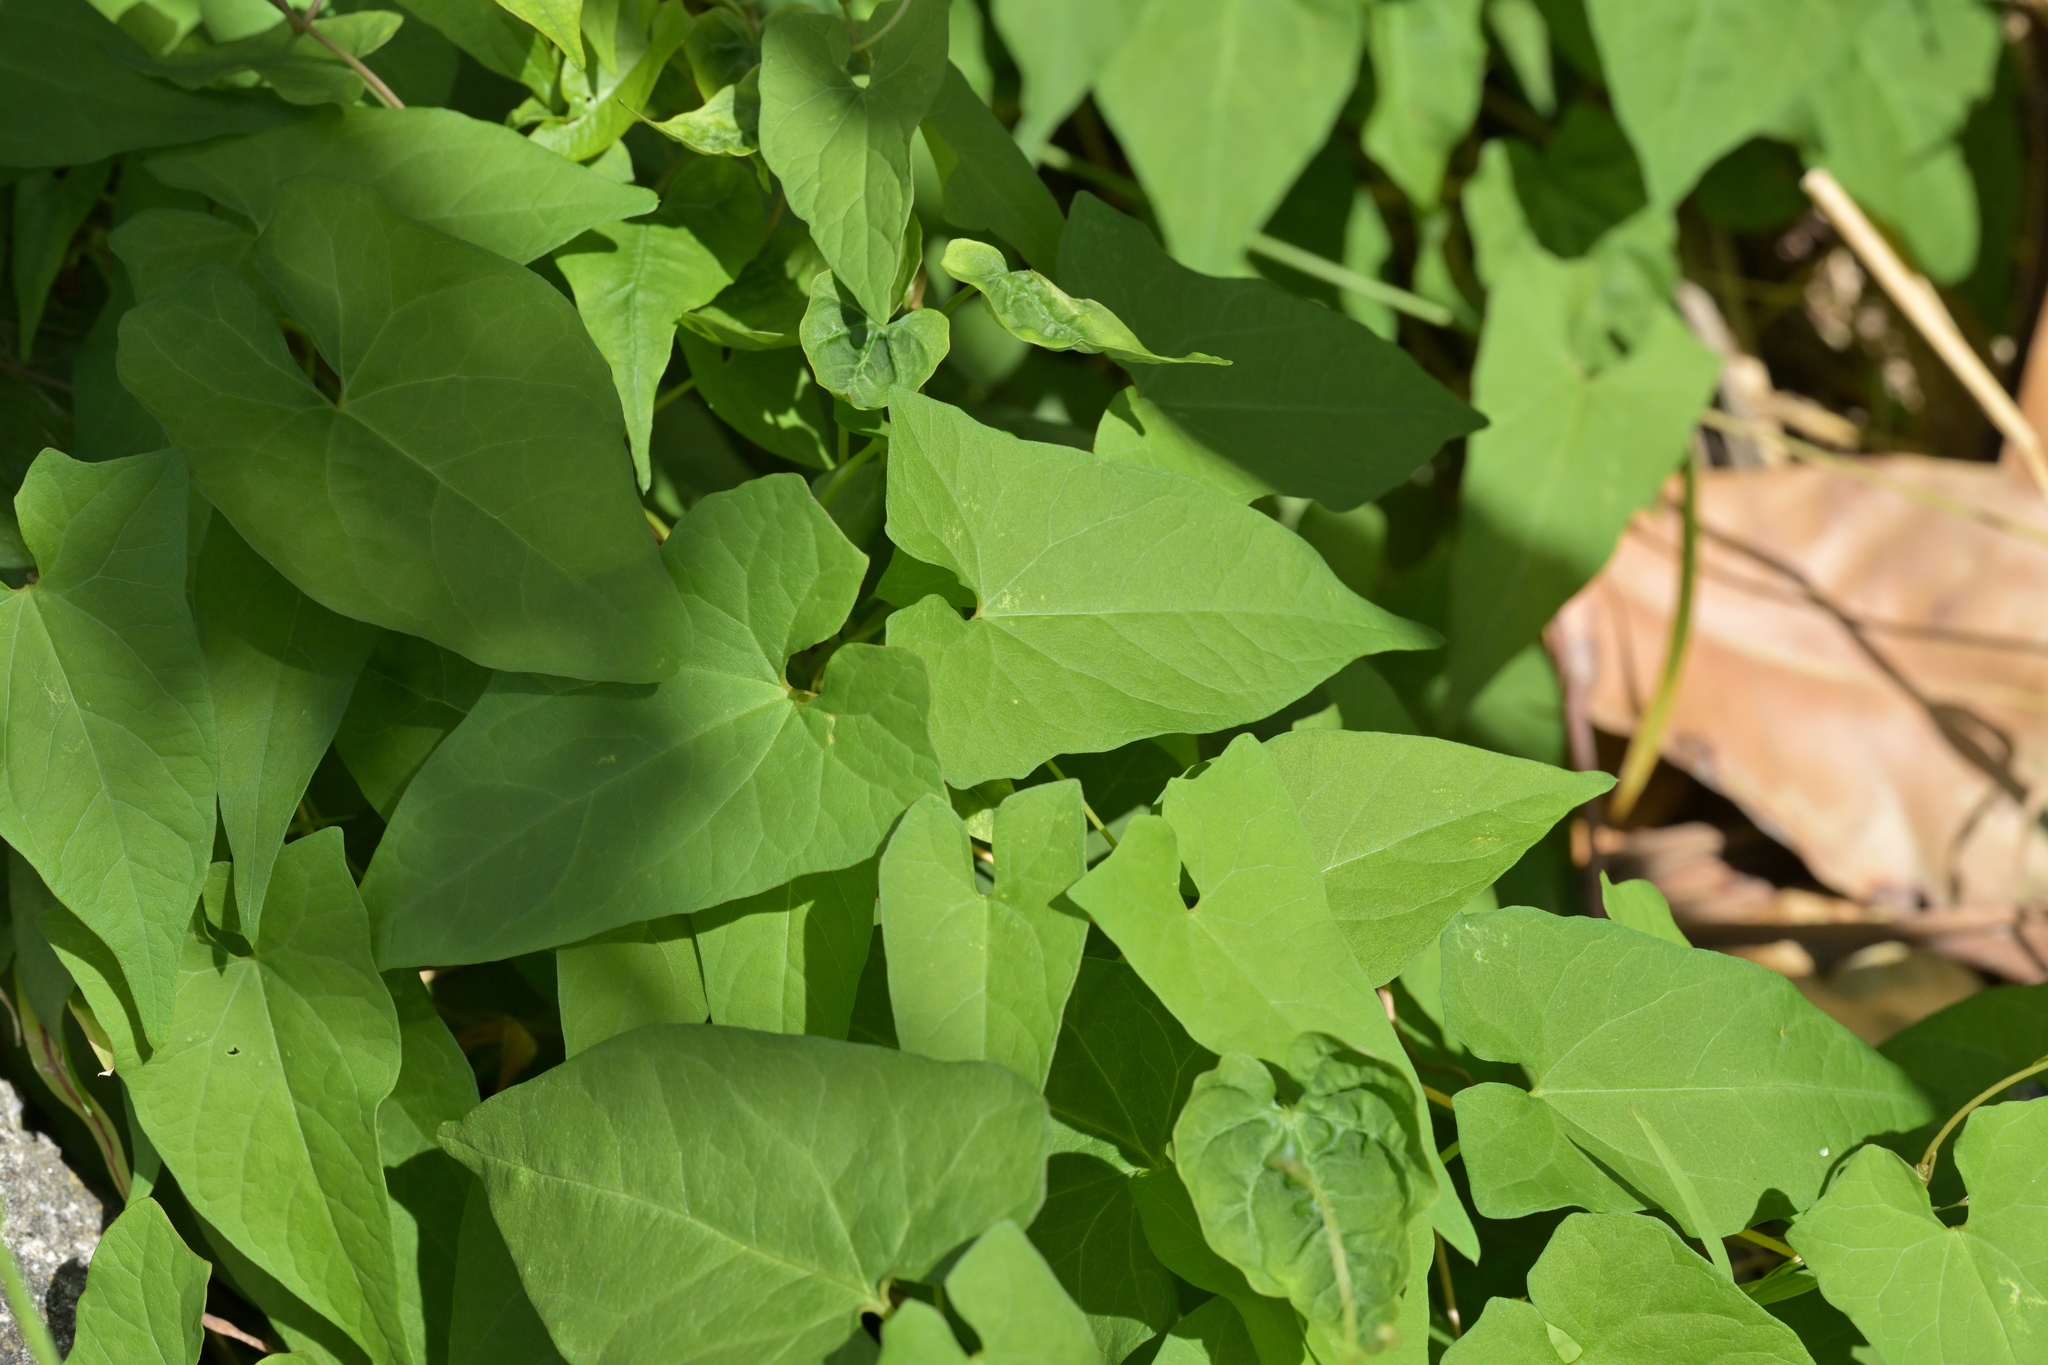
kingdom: Plantae
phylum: Tracheophyta
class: Magnoliopsida
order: Solanales
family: Convolvulaceae
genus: Calystegia
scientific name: Calystegia silvatica
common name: Large bindweed
